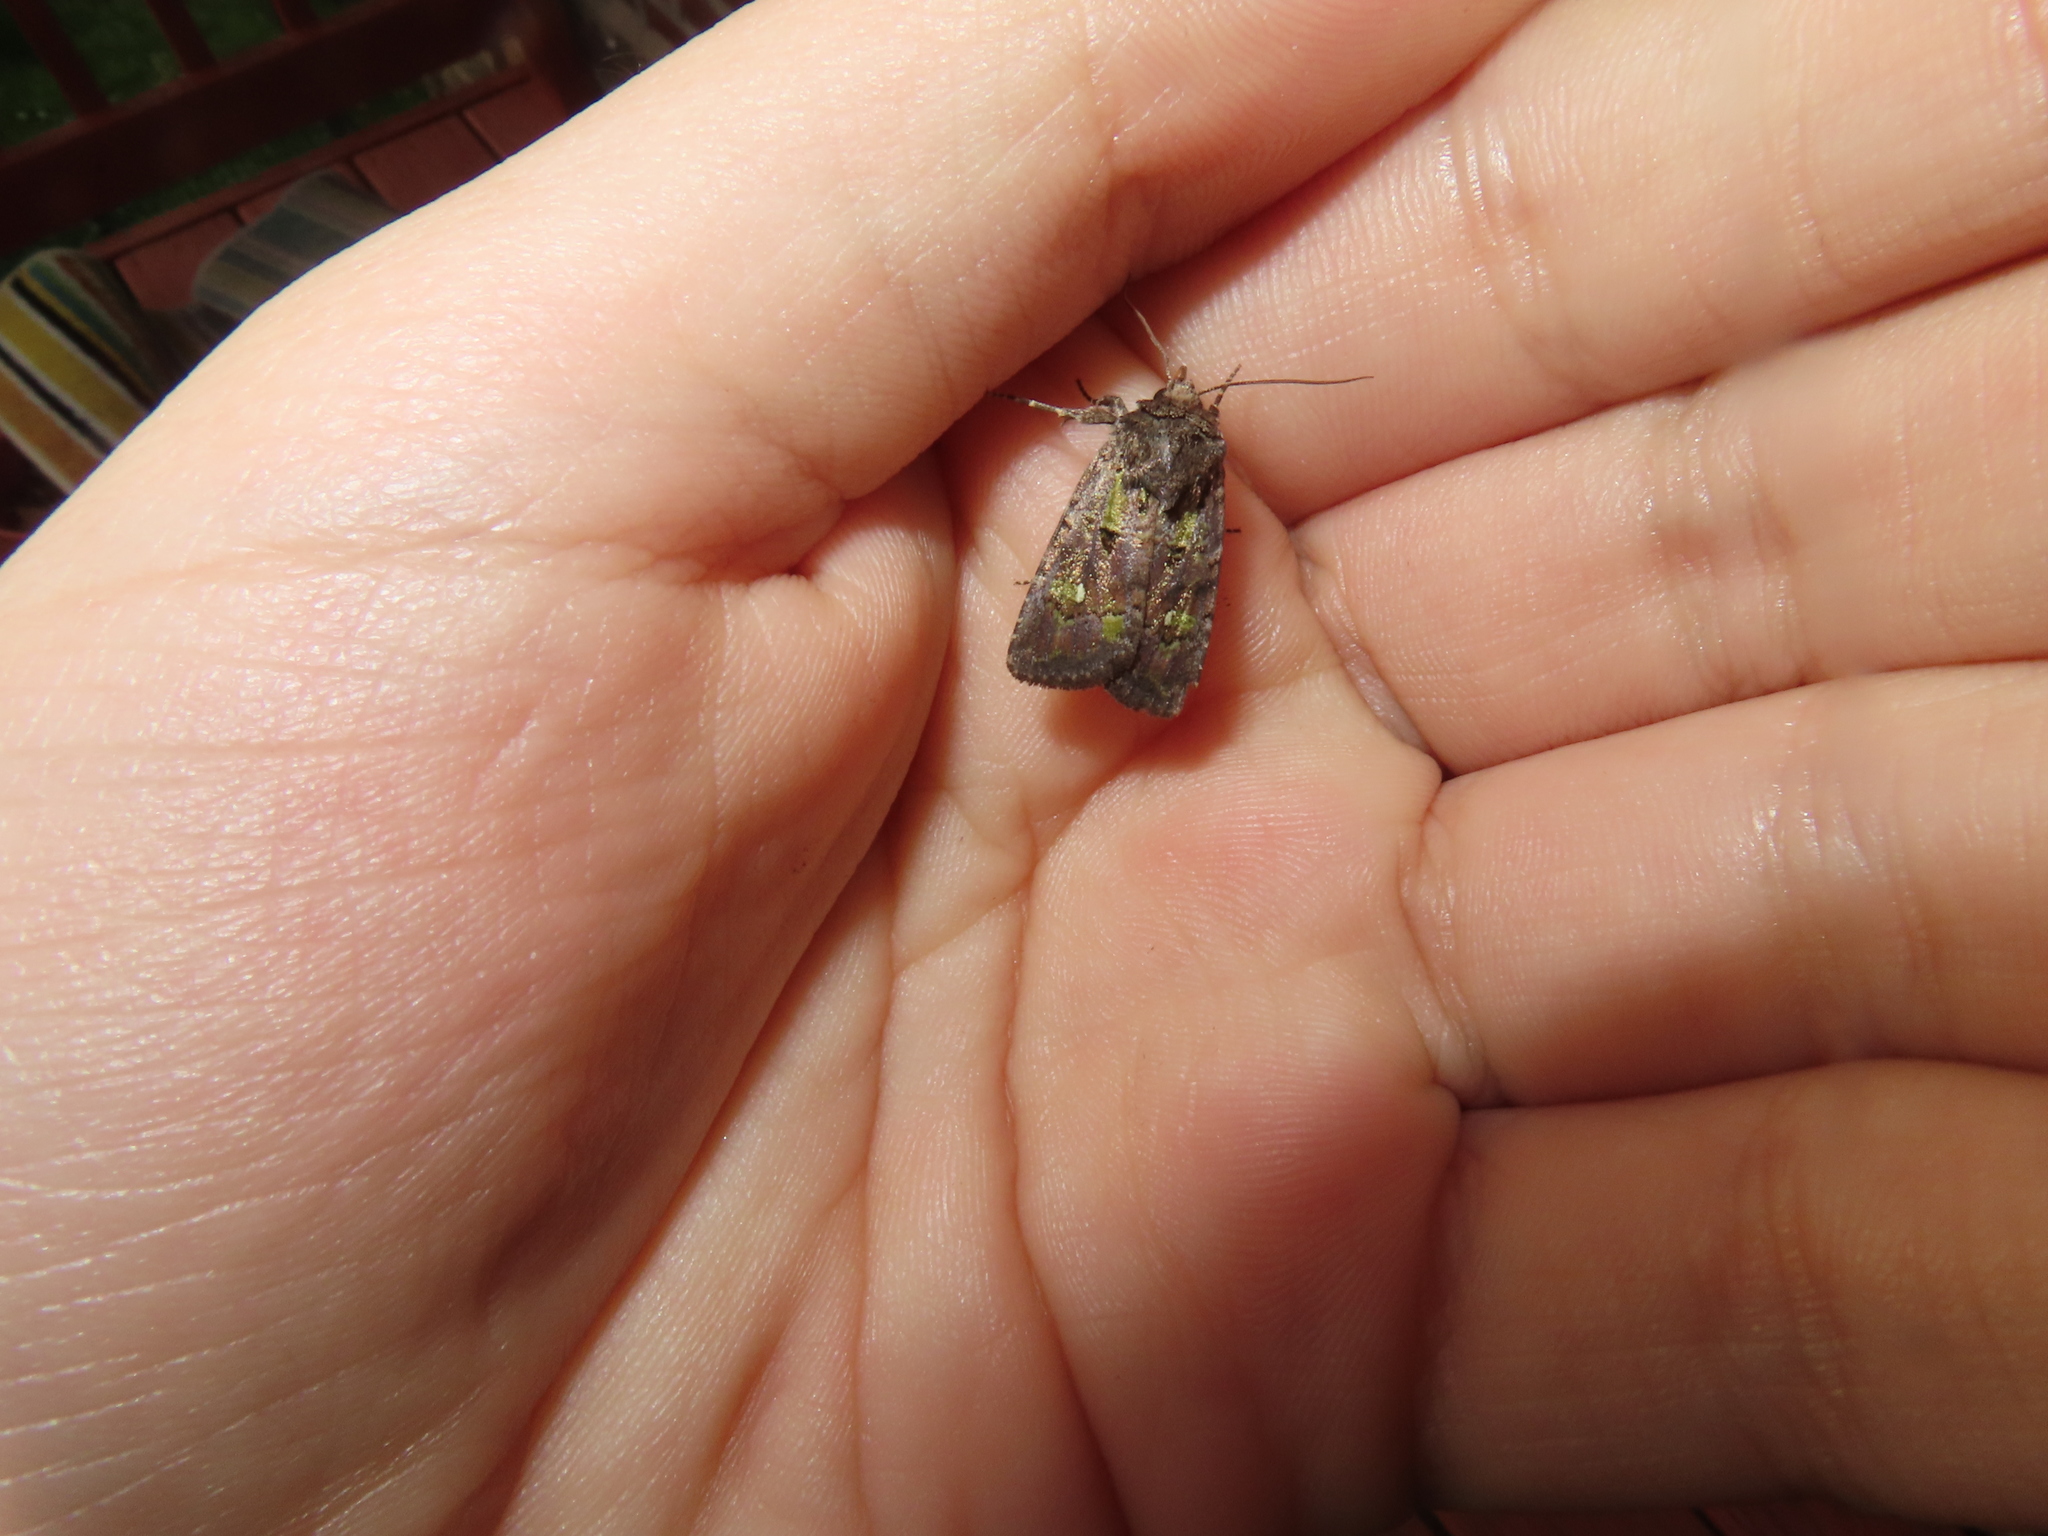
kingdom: Animalia
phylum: Arthropoda
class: Insecta
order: Lepidoptera
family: Noctuidae
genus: Lacinipolia
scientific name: Lacinipolia renigera
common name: Kidney-spotted minor
